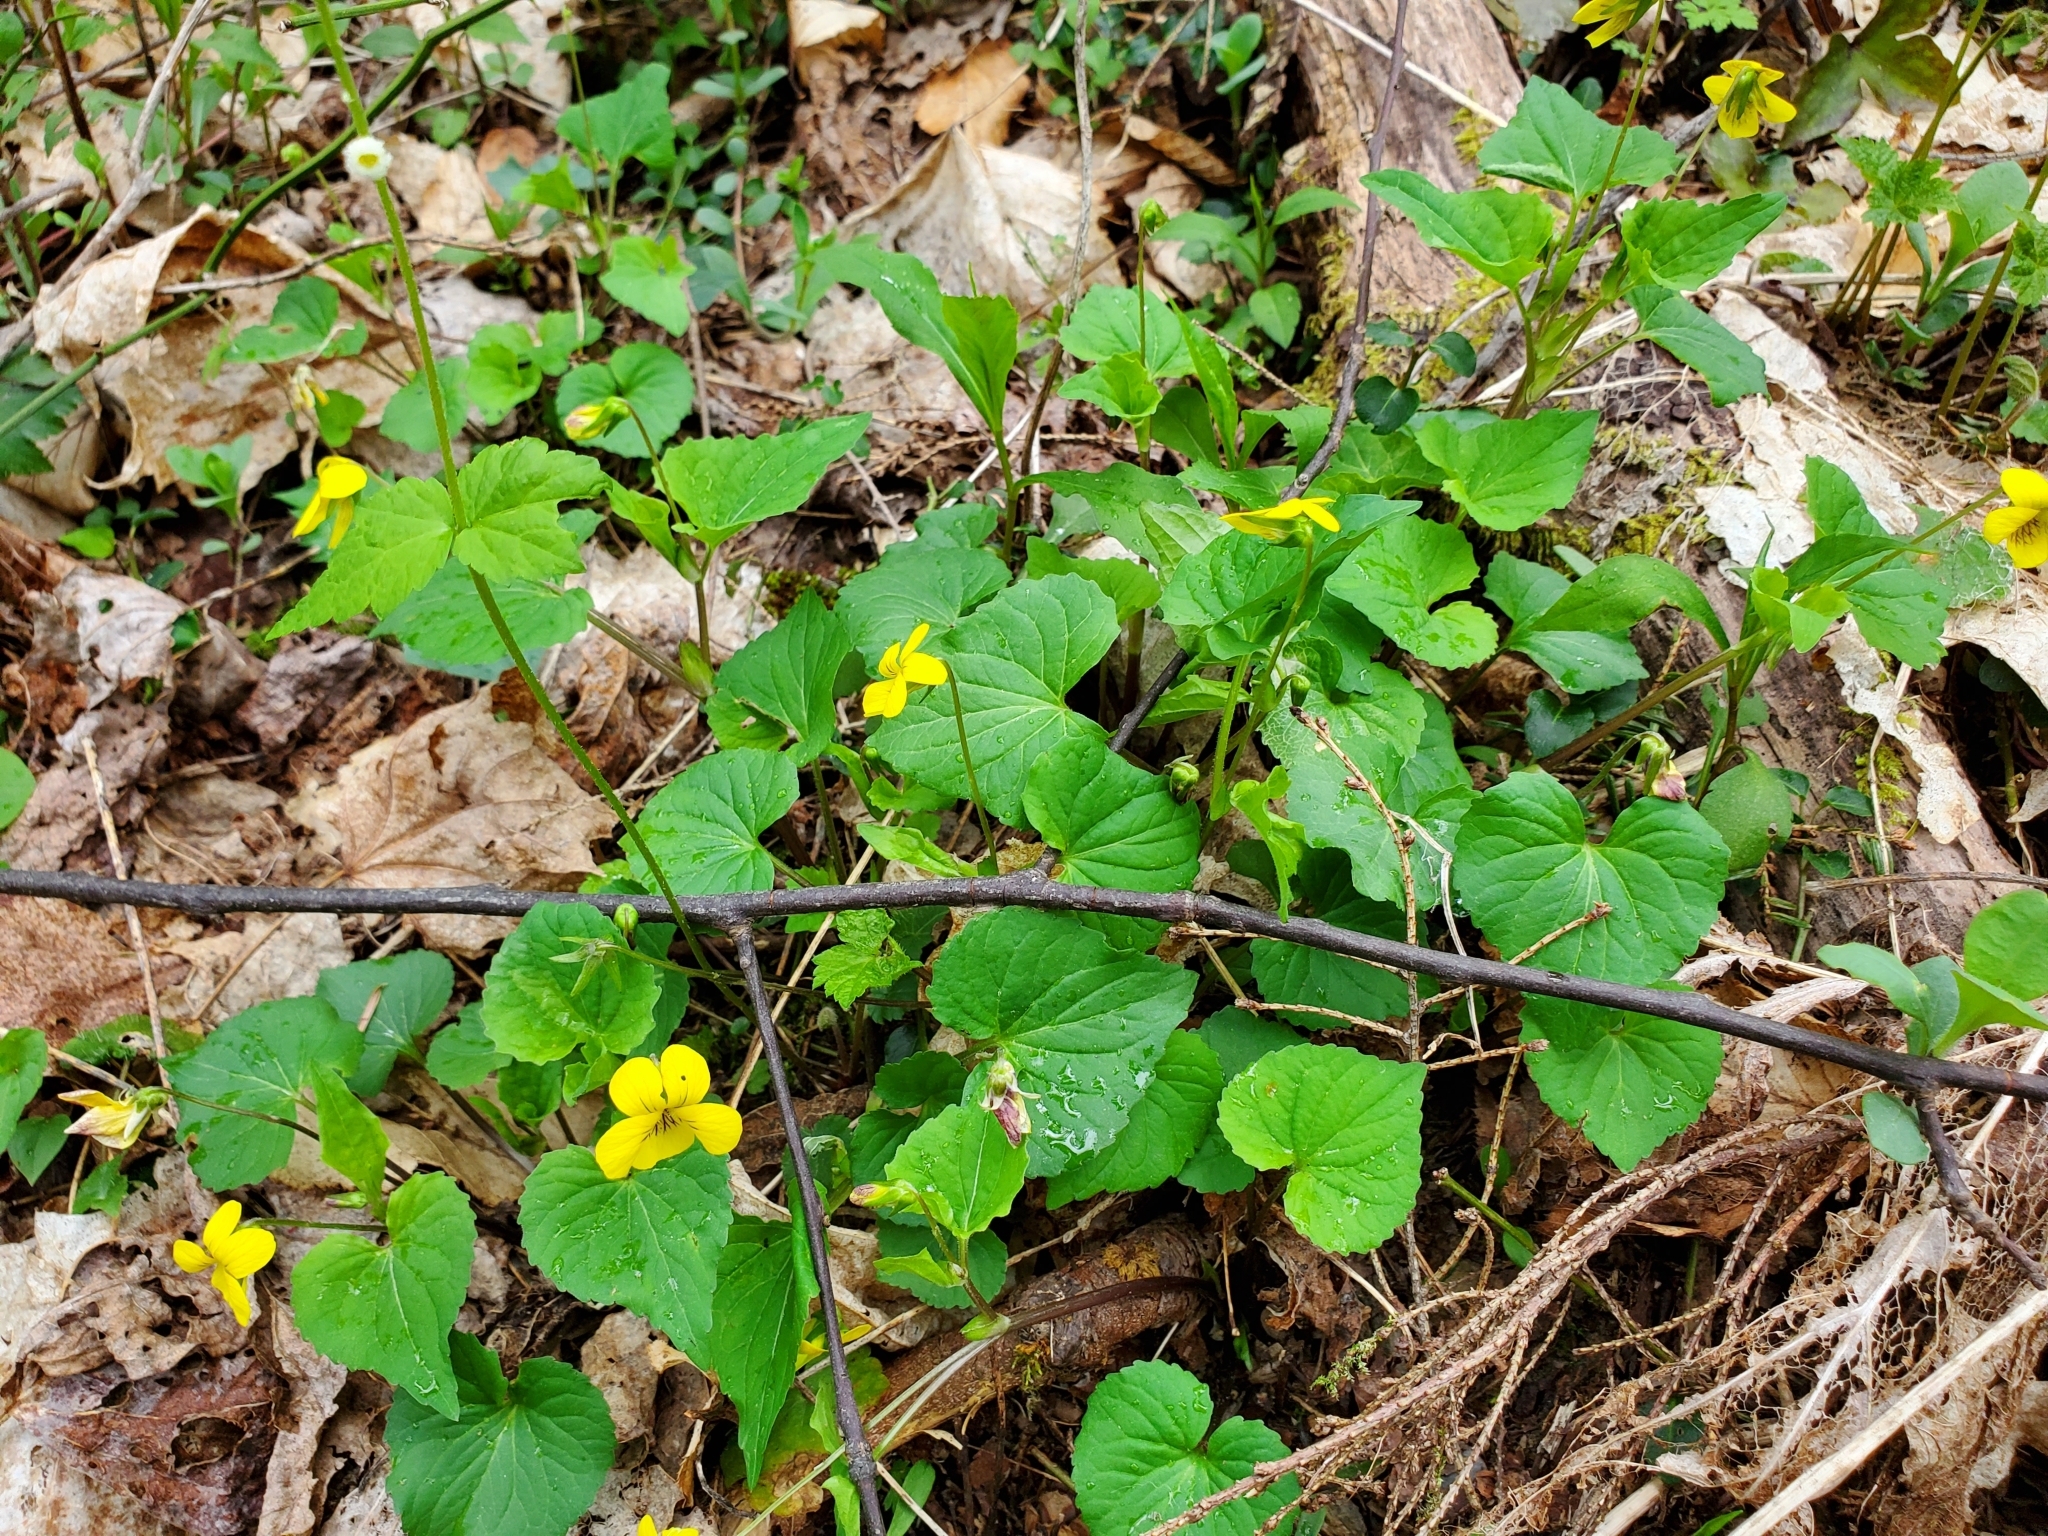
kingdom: Plantae
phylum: Tracheophyta
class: Magnoliopsida
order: Malpighiales
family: Violaceae
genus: Viola
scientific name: Viola eriocarpa
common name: Smooth yellow violet
